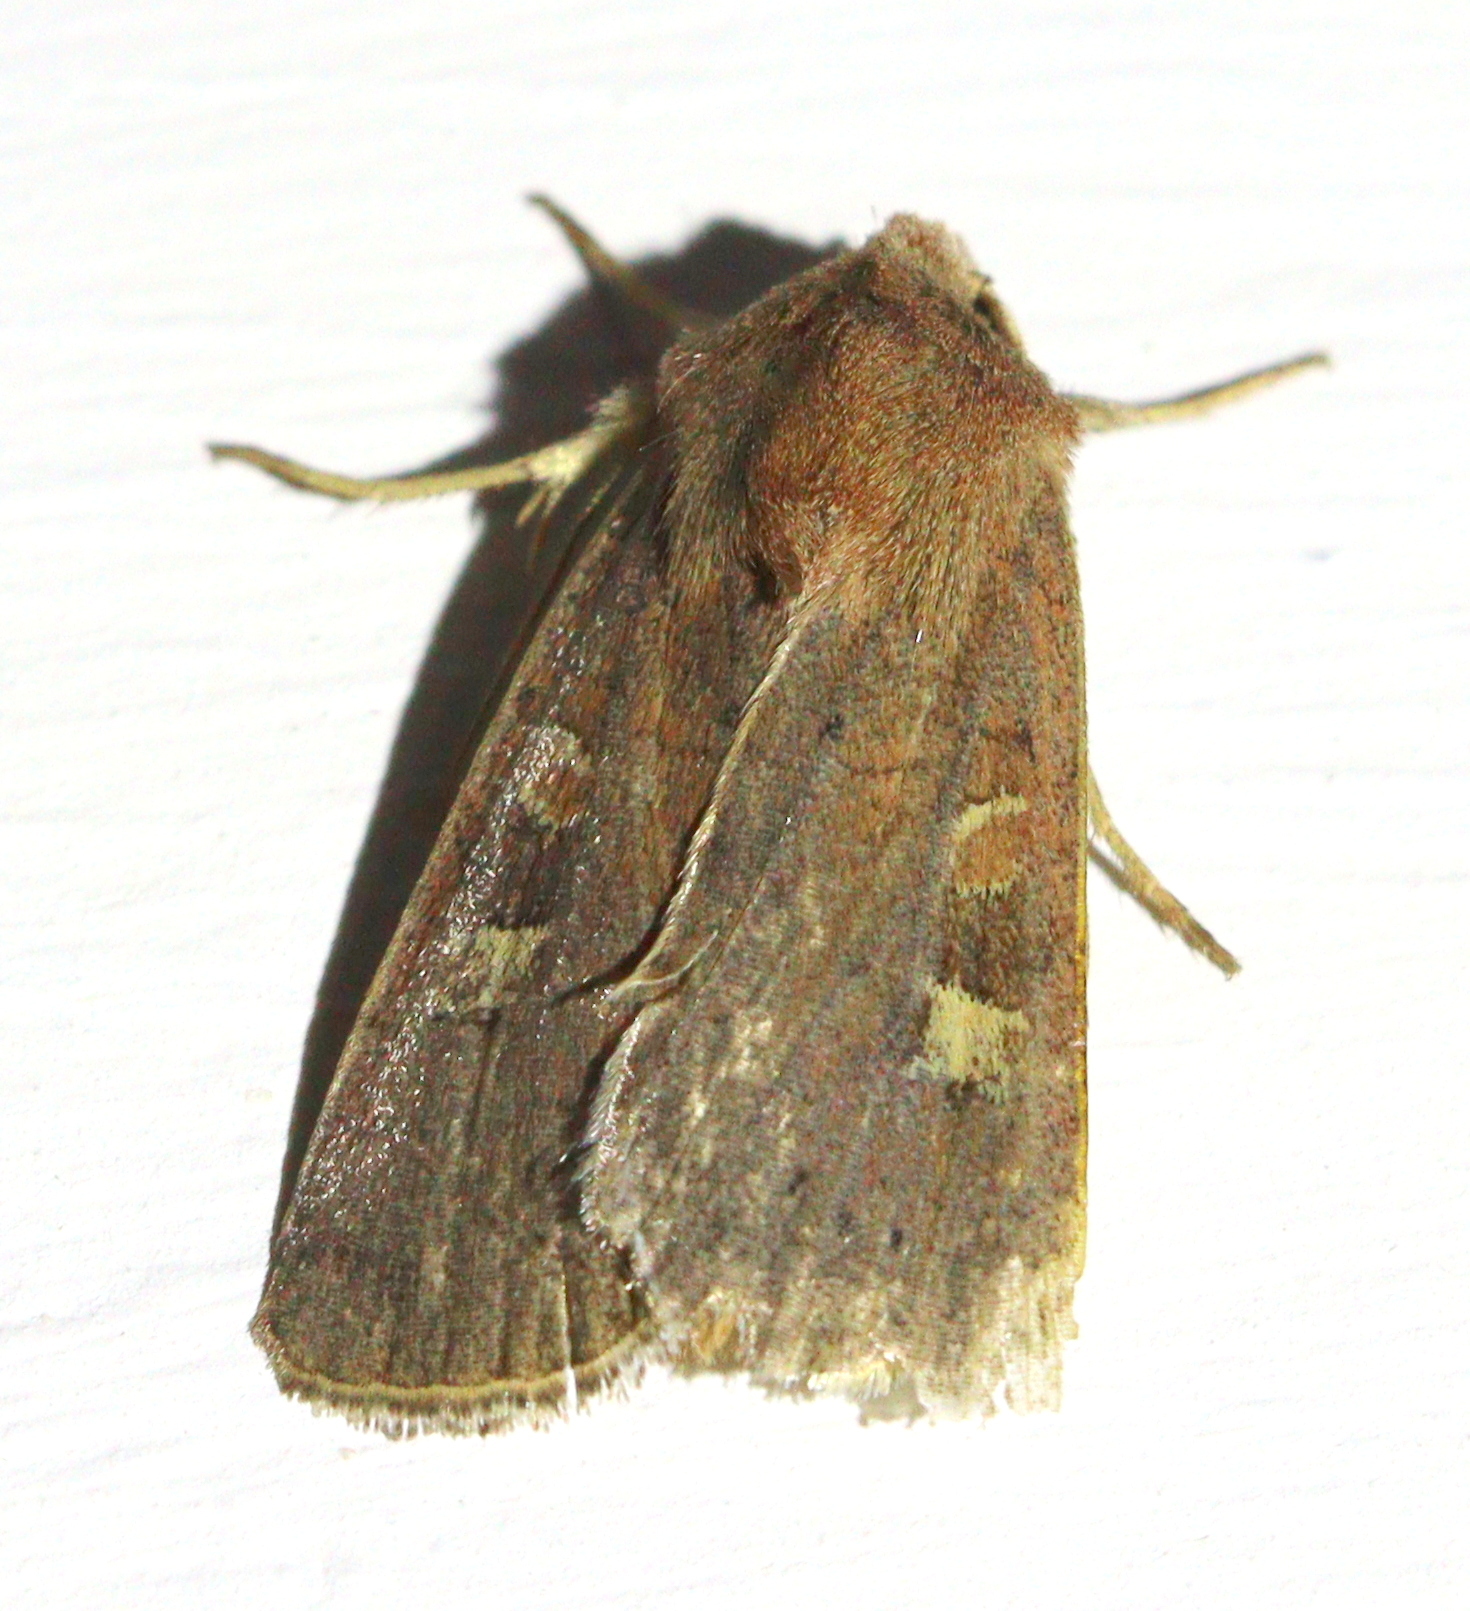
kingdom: Animalia
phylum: Arthropoda
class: Insecta
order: Lepidoptera
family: Noctuidae
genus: Xestia
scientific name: Xestia xanthographa
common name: Square-spot rustic
